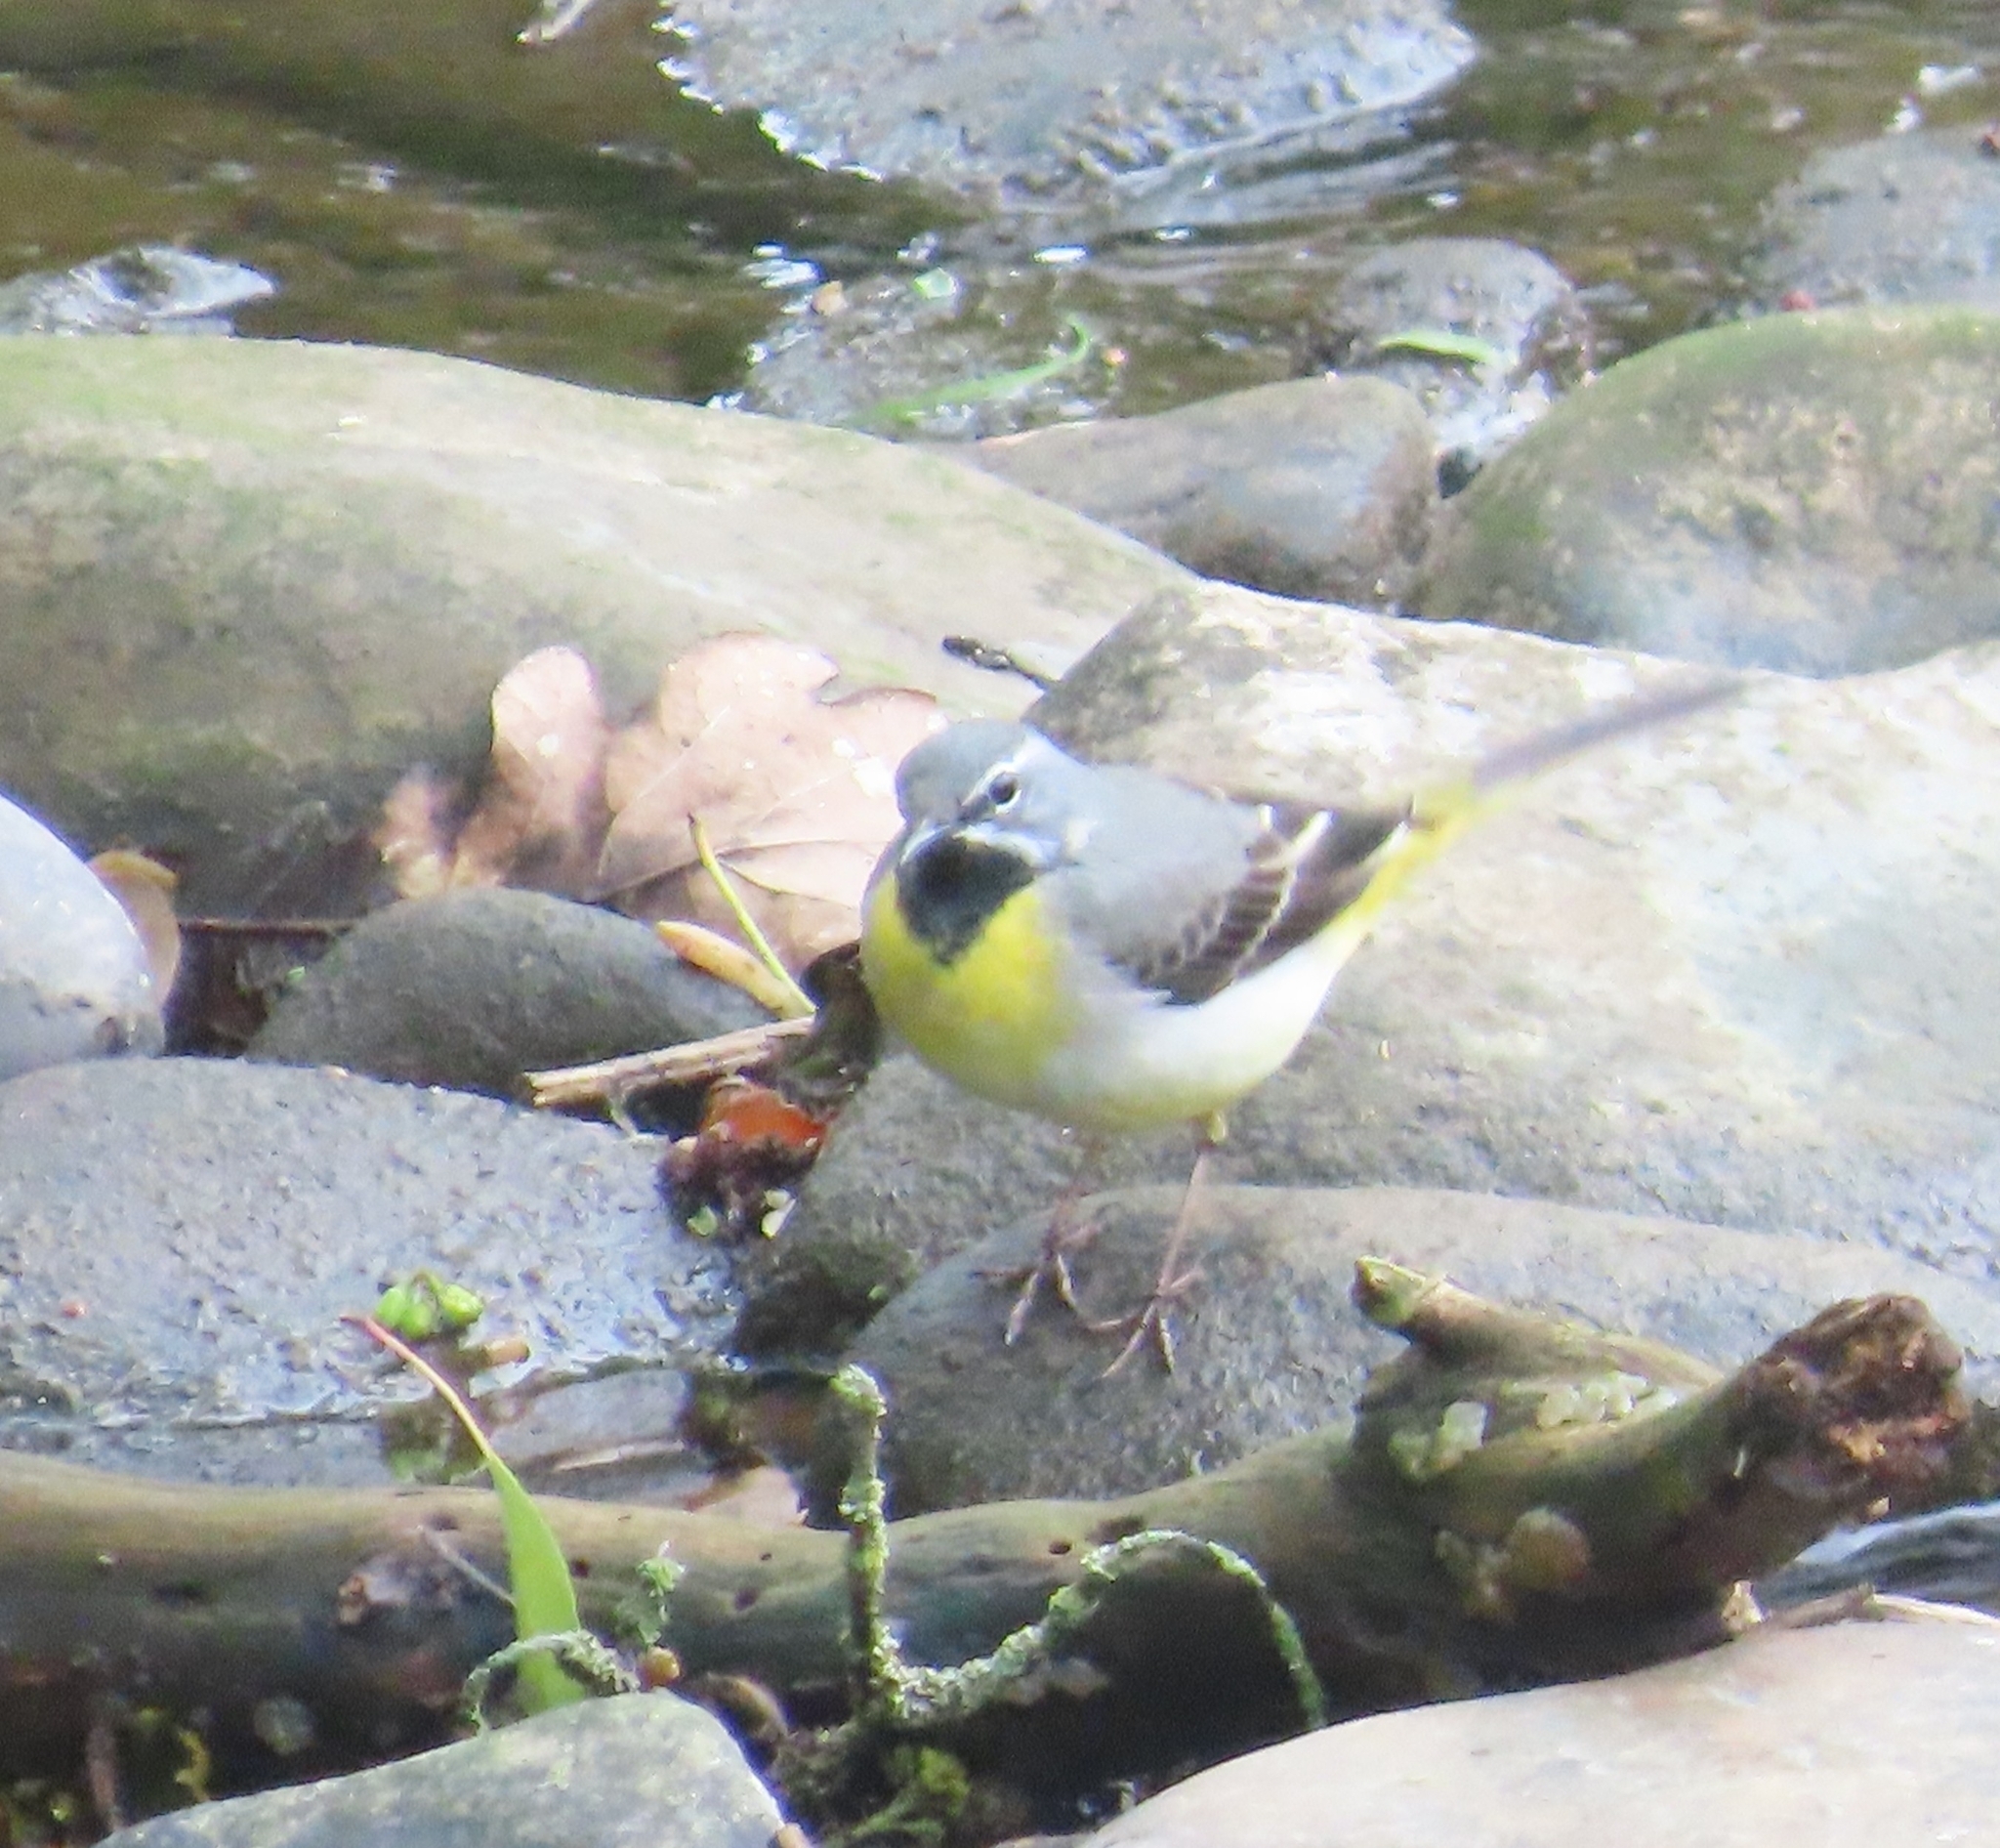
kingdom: Animalia
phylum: Chordata
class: Aves
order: Passeriformes
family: Motacillidae
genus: Motacilla
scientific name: Motacilla cinerea
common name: Grey wagtail
